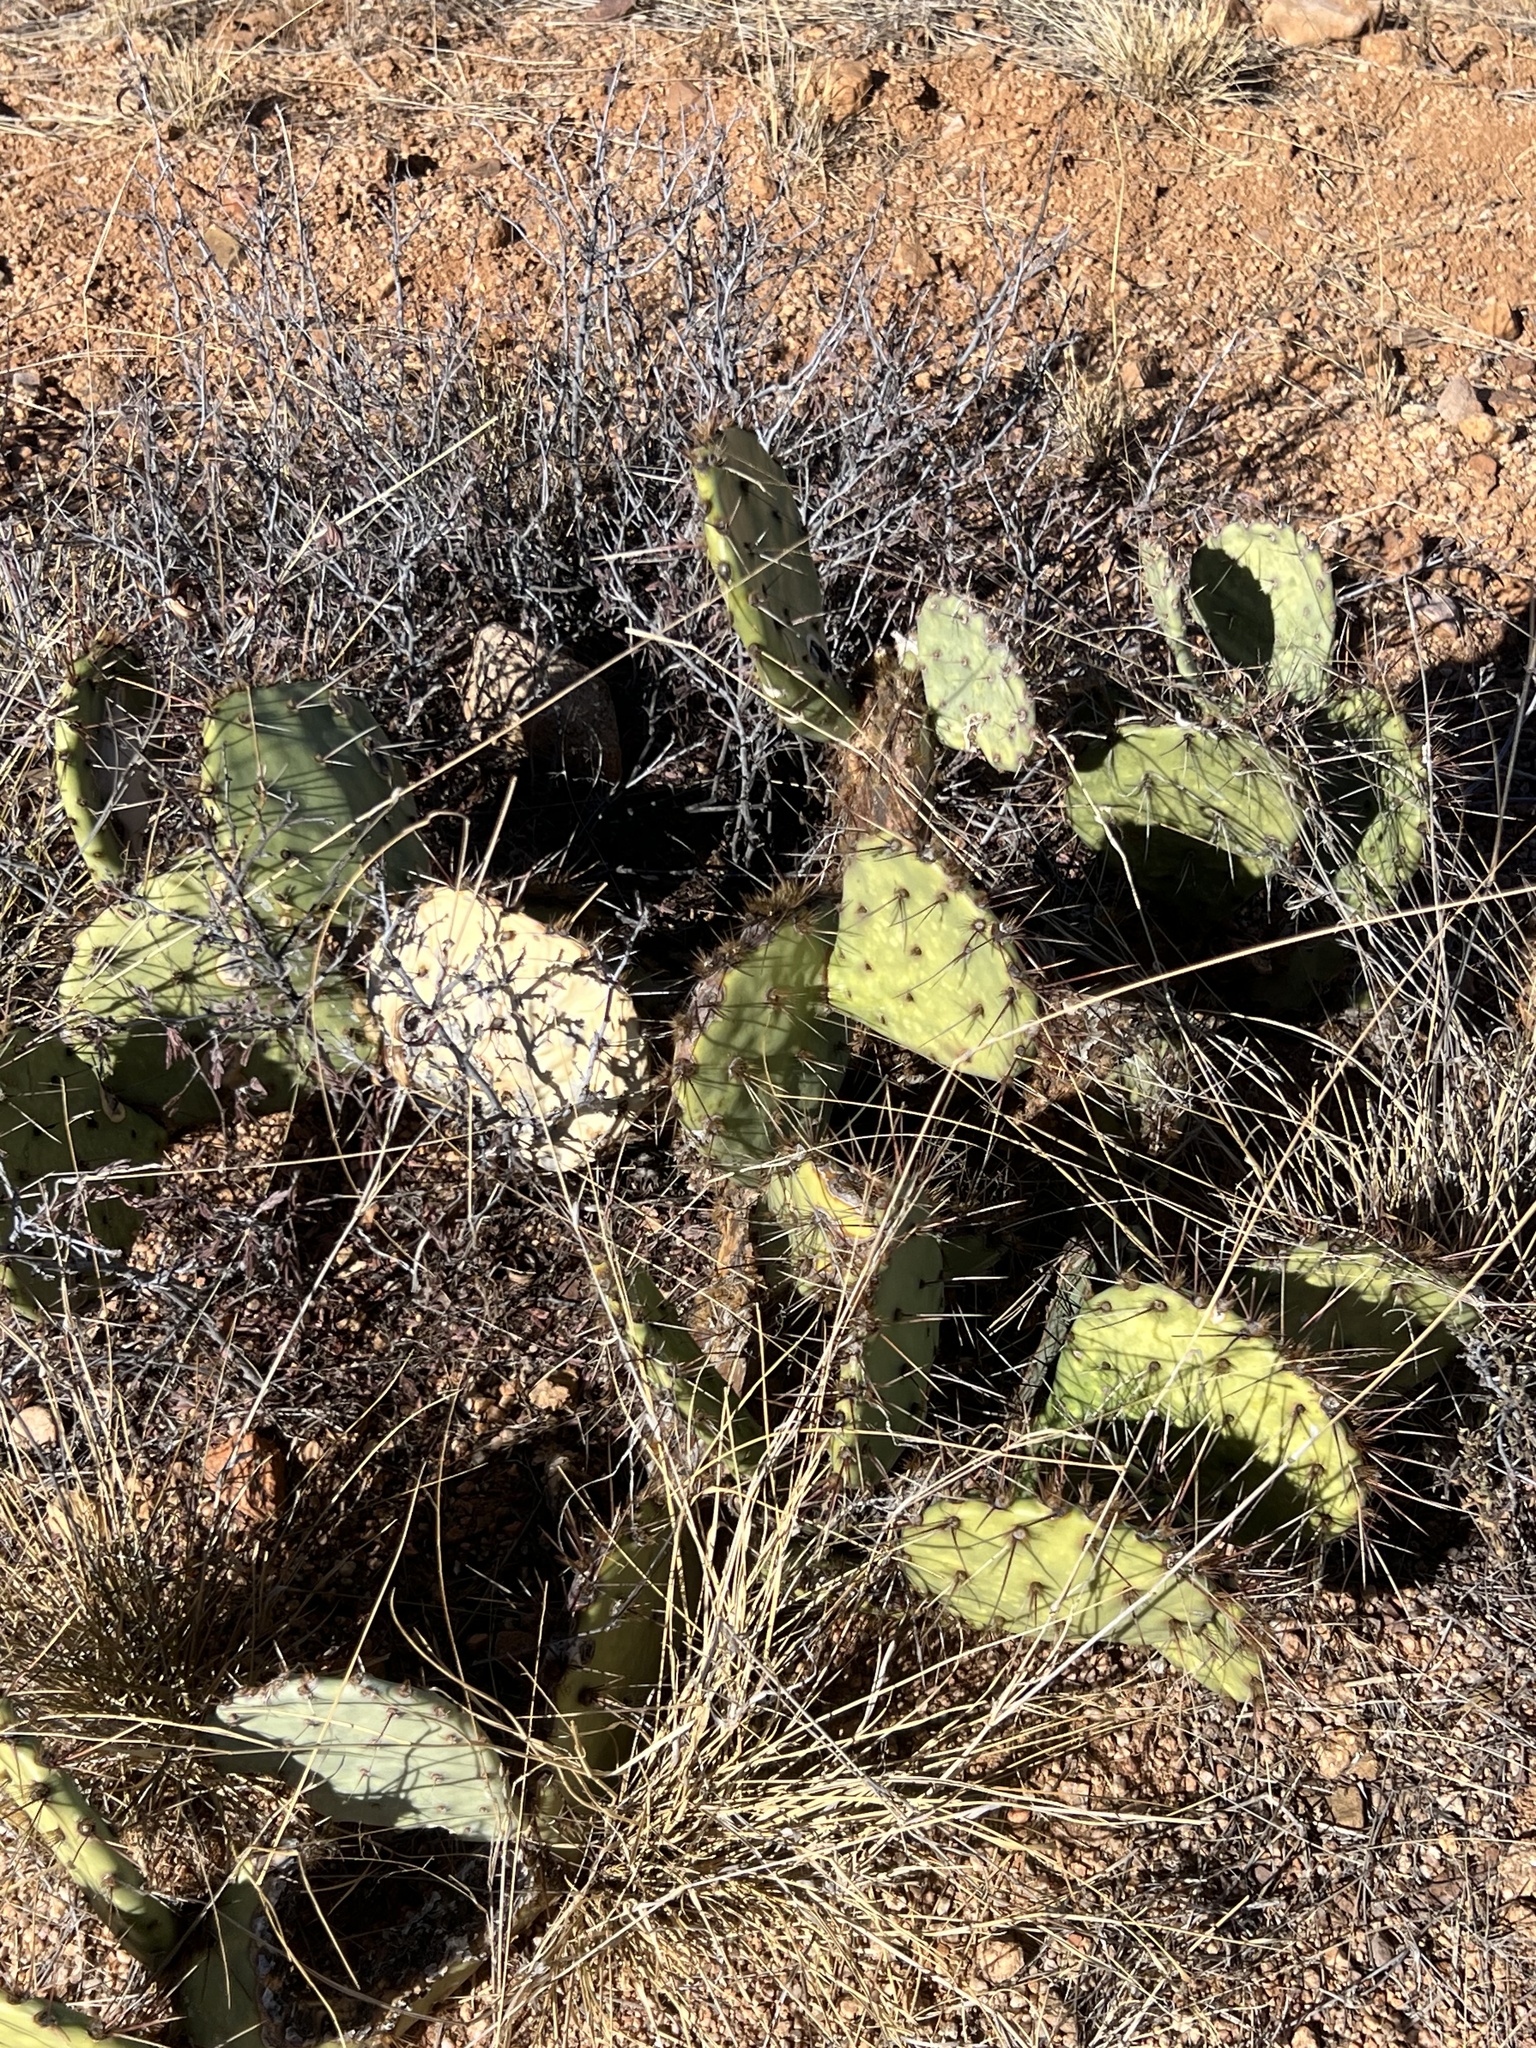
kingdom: Plantae
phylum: Tracheophyta
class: Magnoliopsida
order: Caryophyllales
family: Cactaceae
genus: Opuntia
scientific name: Opuntia phaeacantha
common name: New mexico prickly-pear
